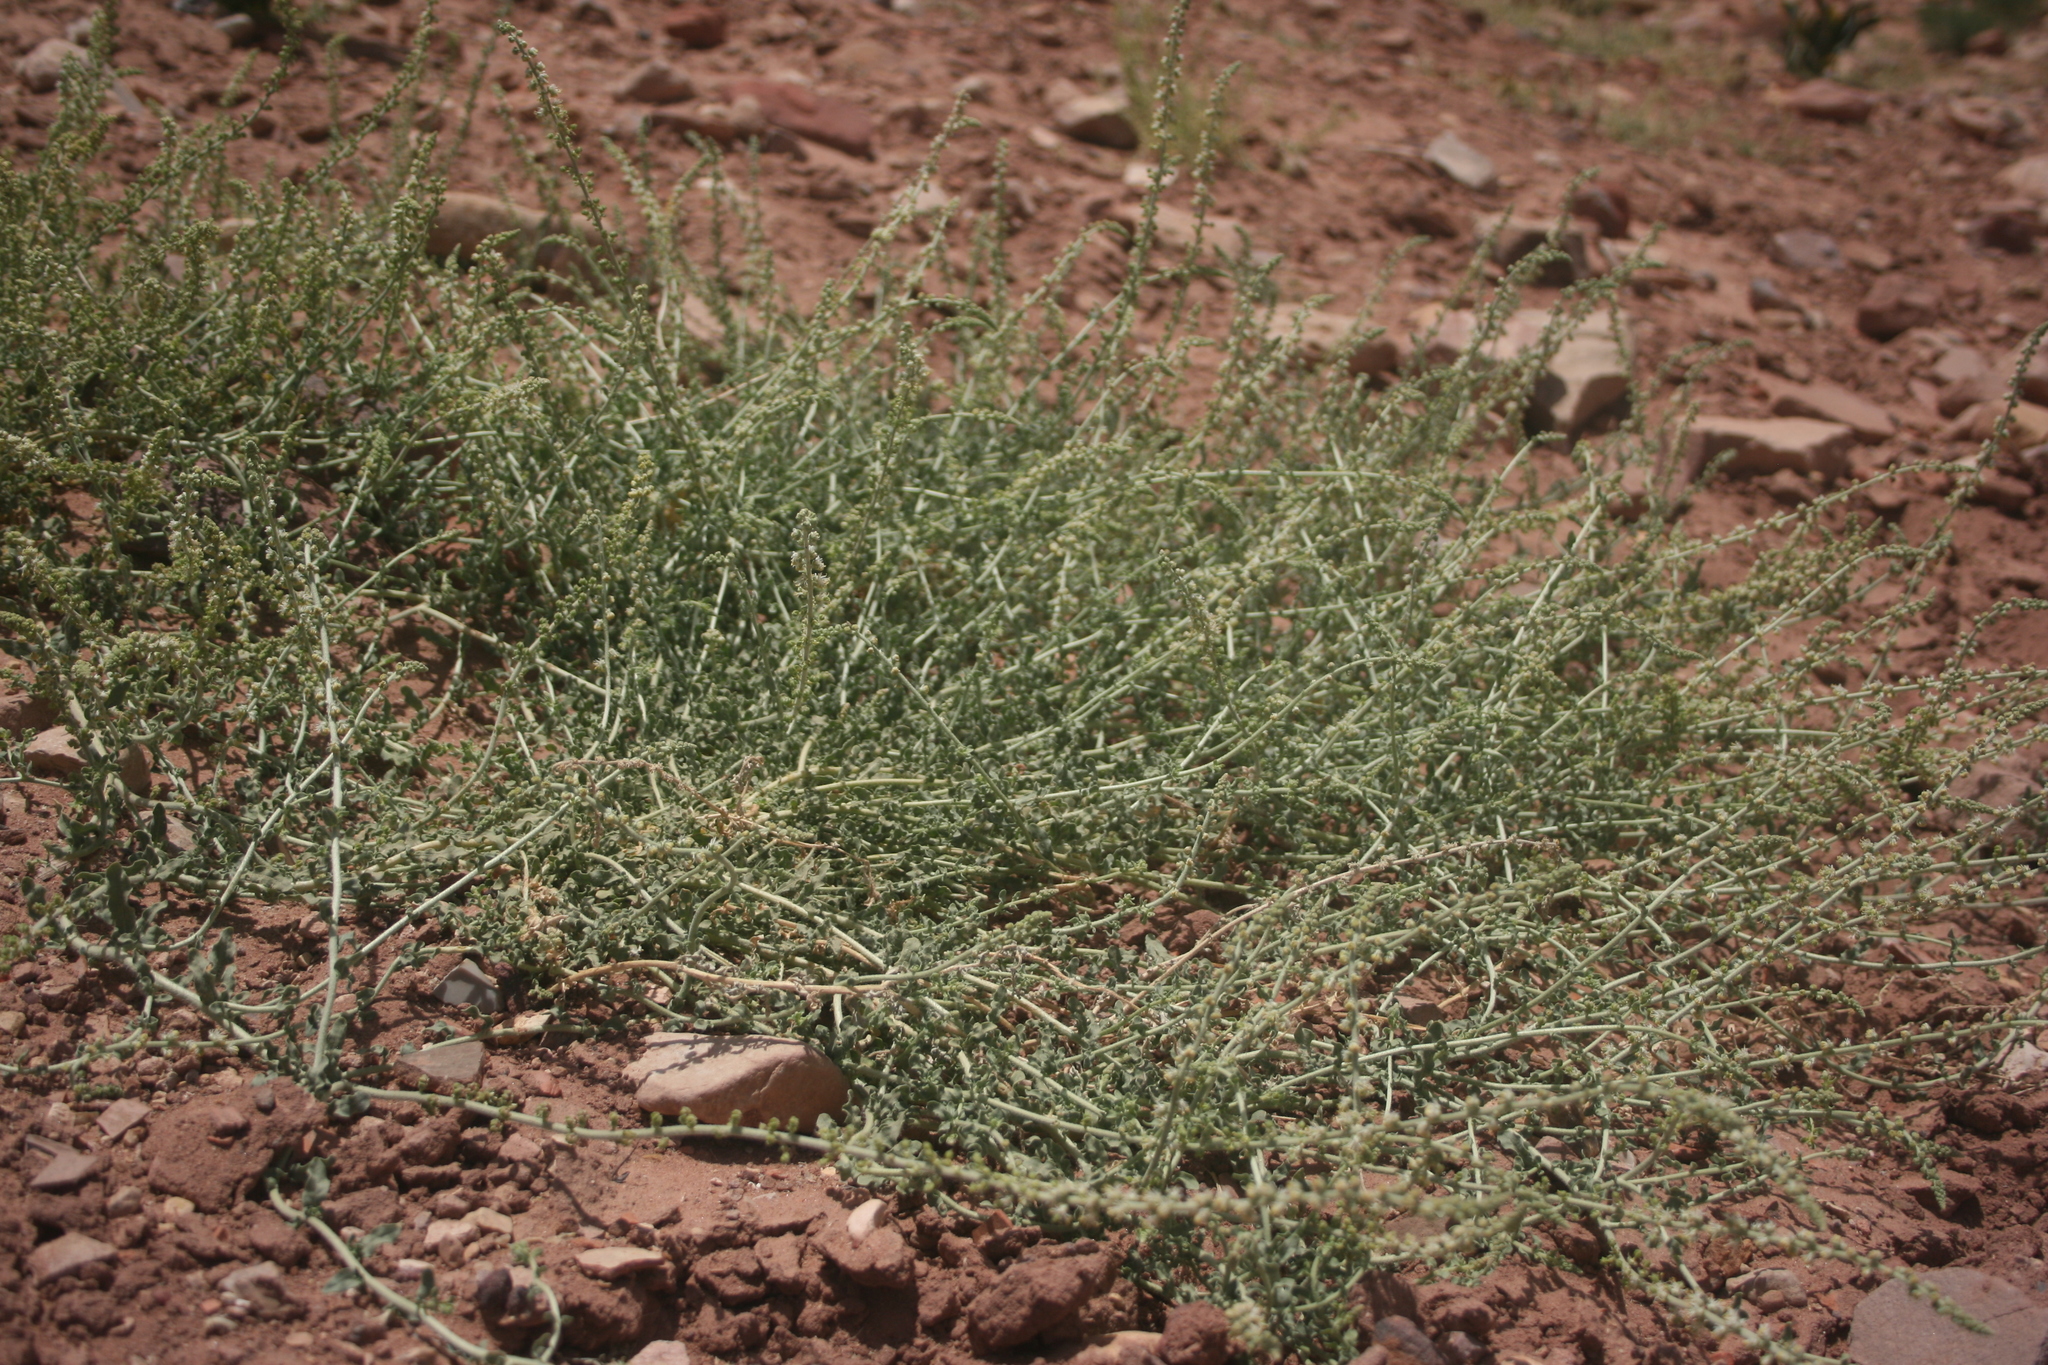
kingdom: Plantae
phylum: Tracheophyta
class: Magnoliopsida
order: Brassicales
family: Resedaceae
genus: Caylusea
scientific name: Caylusea hexagyna
